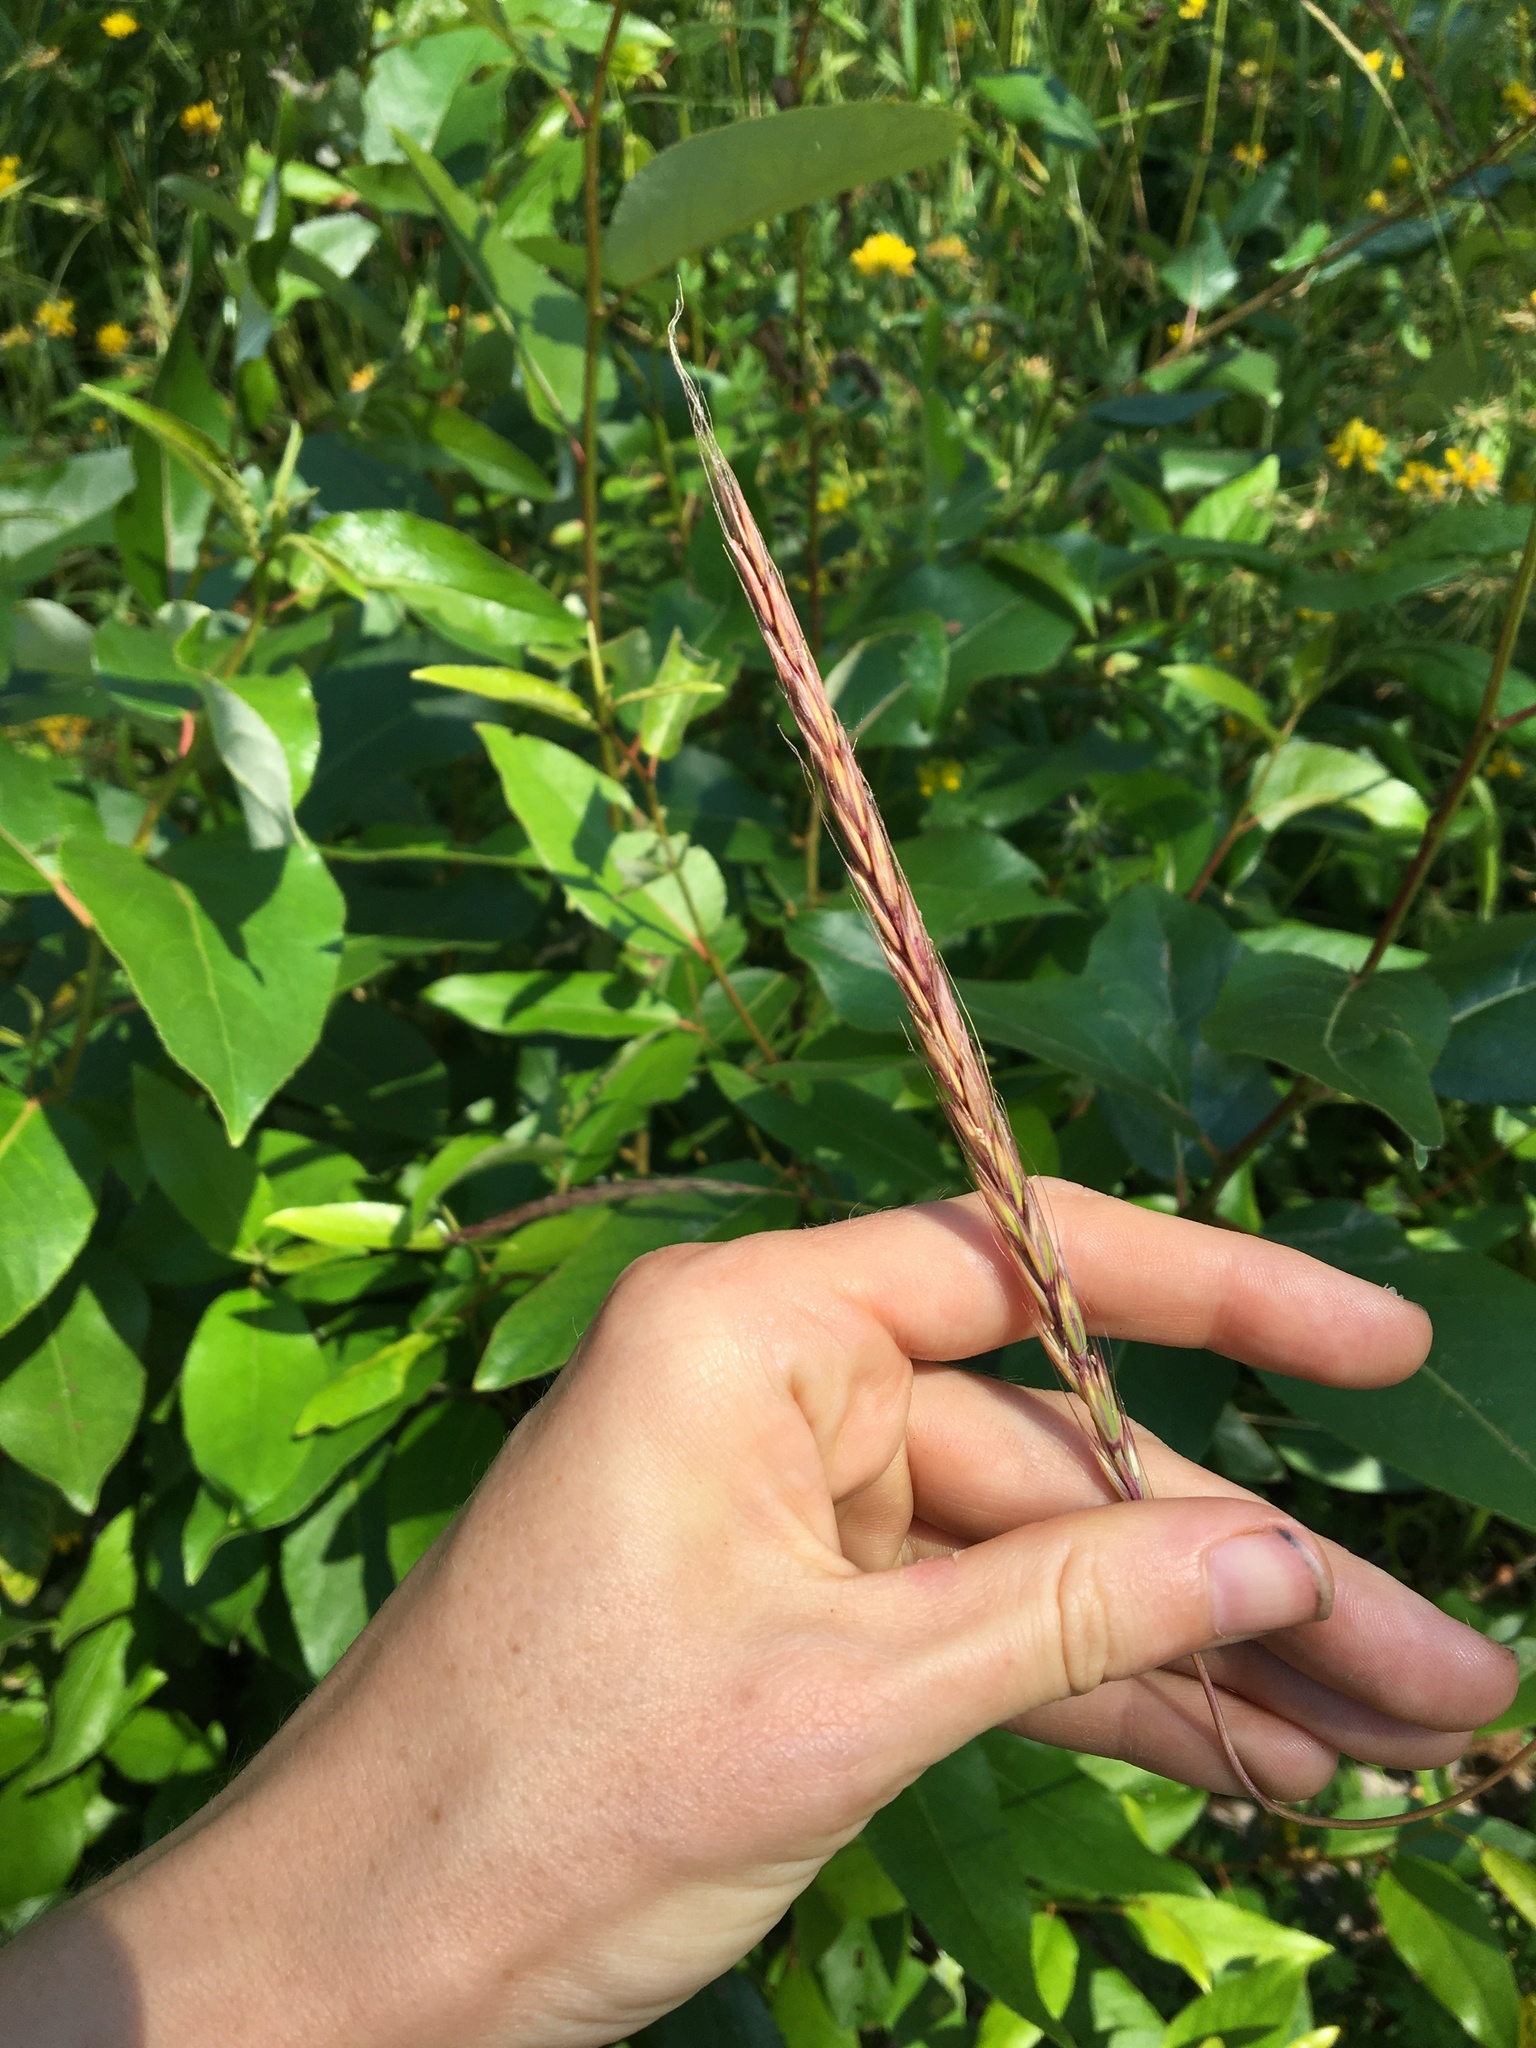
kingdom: Plantae
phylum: Tracheophyta
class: Liliopsida
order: Poales
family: Poaceae
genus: Elymus
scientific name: Elymus glaucus
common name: Blue wild rye
